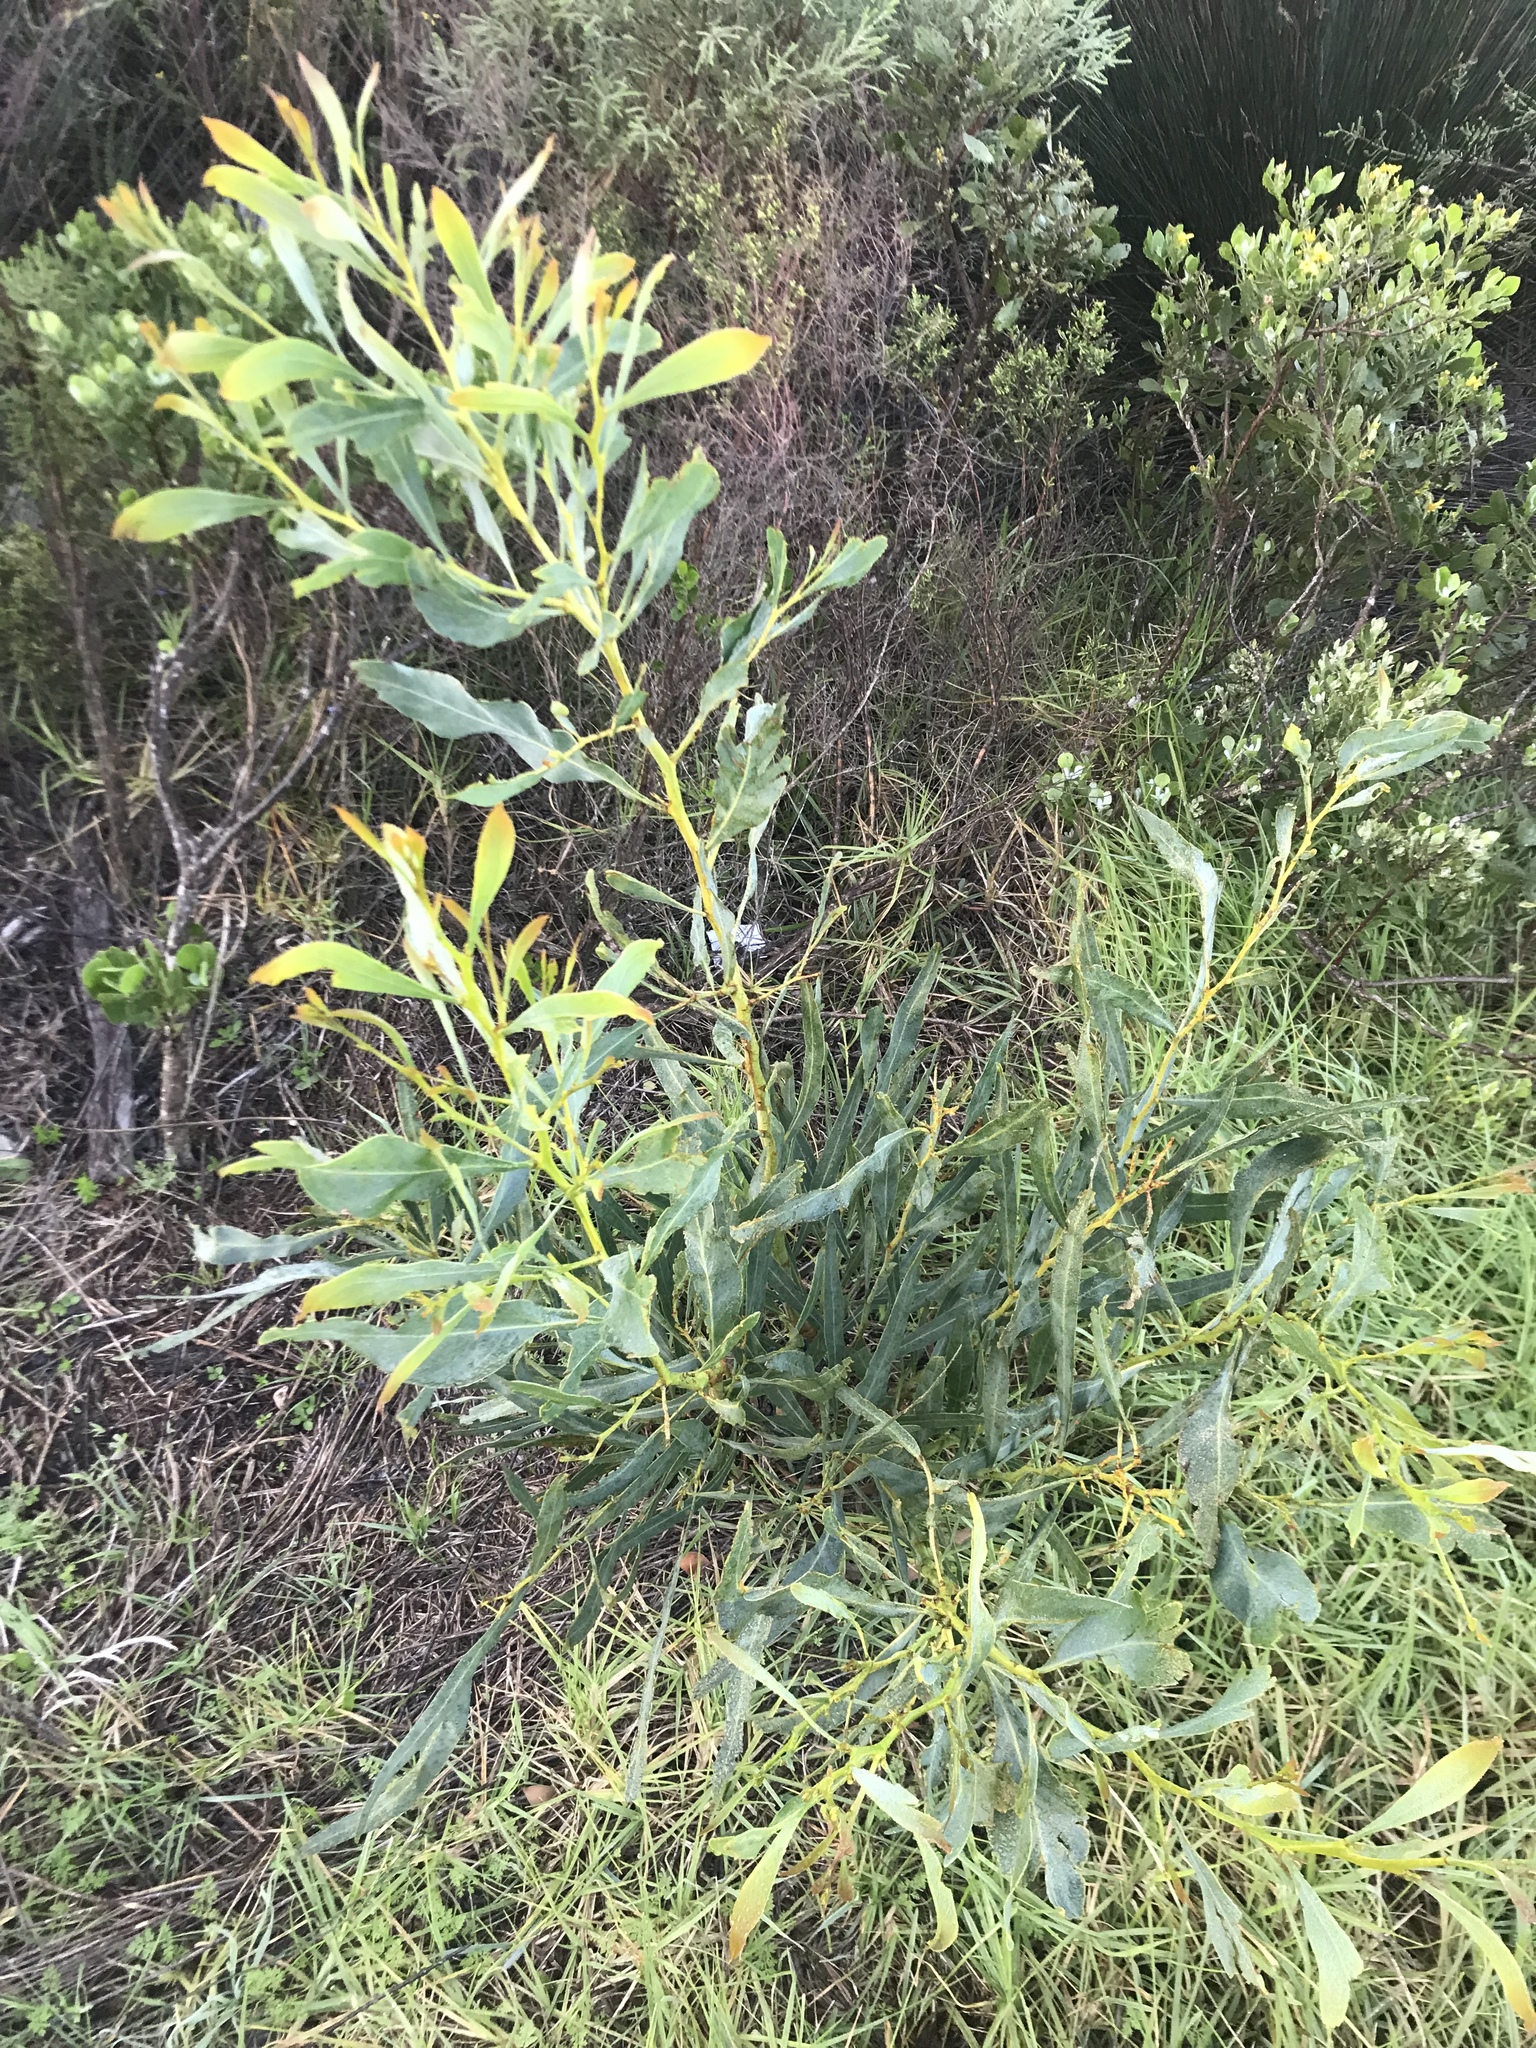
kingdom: Plantae
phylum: Tracheophyta
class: Magnoliopsida
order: Fabales
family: Fabaceae
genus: Acacia
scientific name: Acacia saligna
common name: Orange wattle
